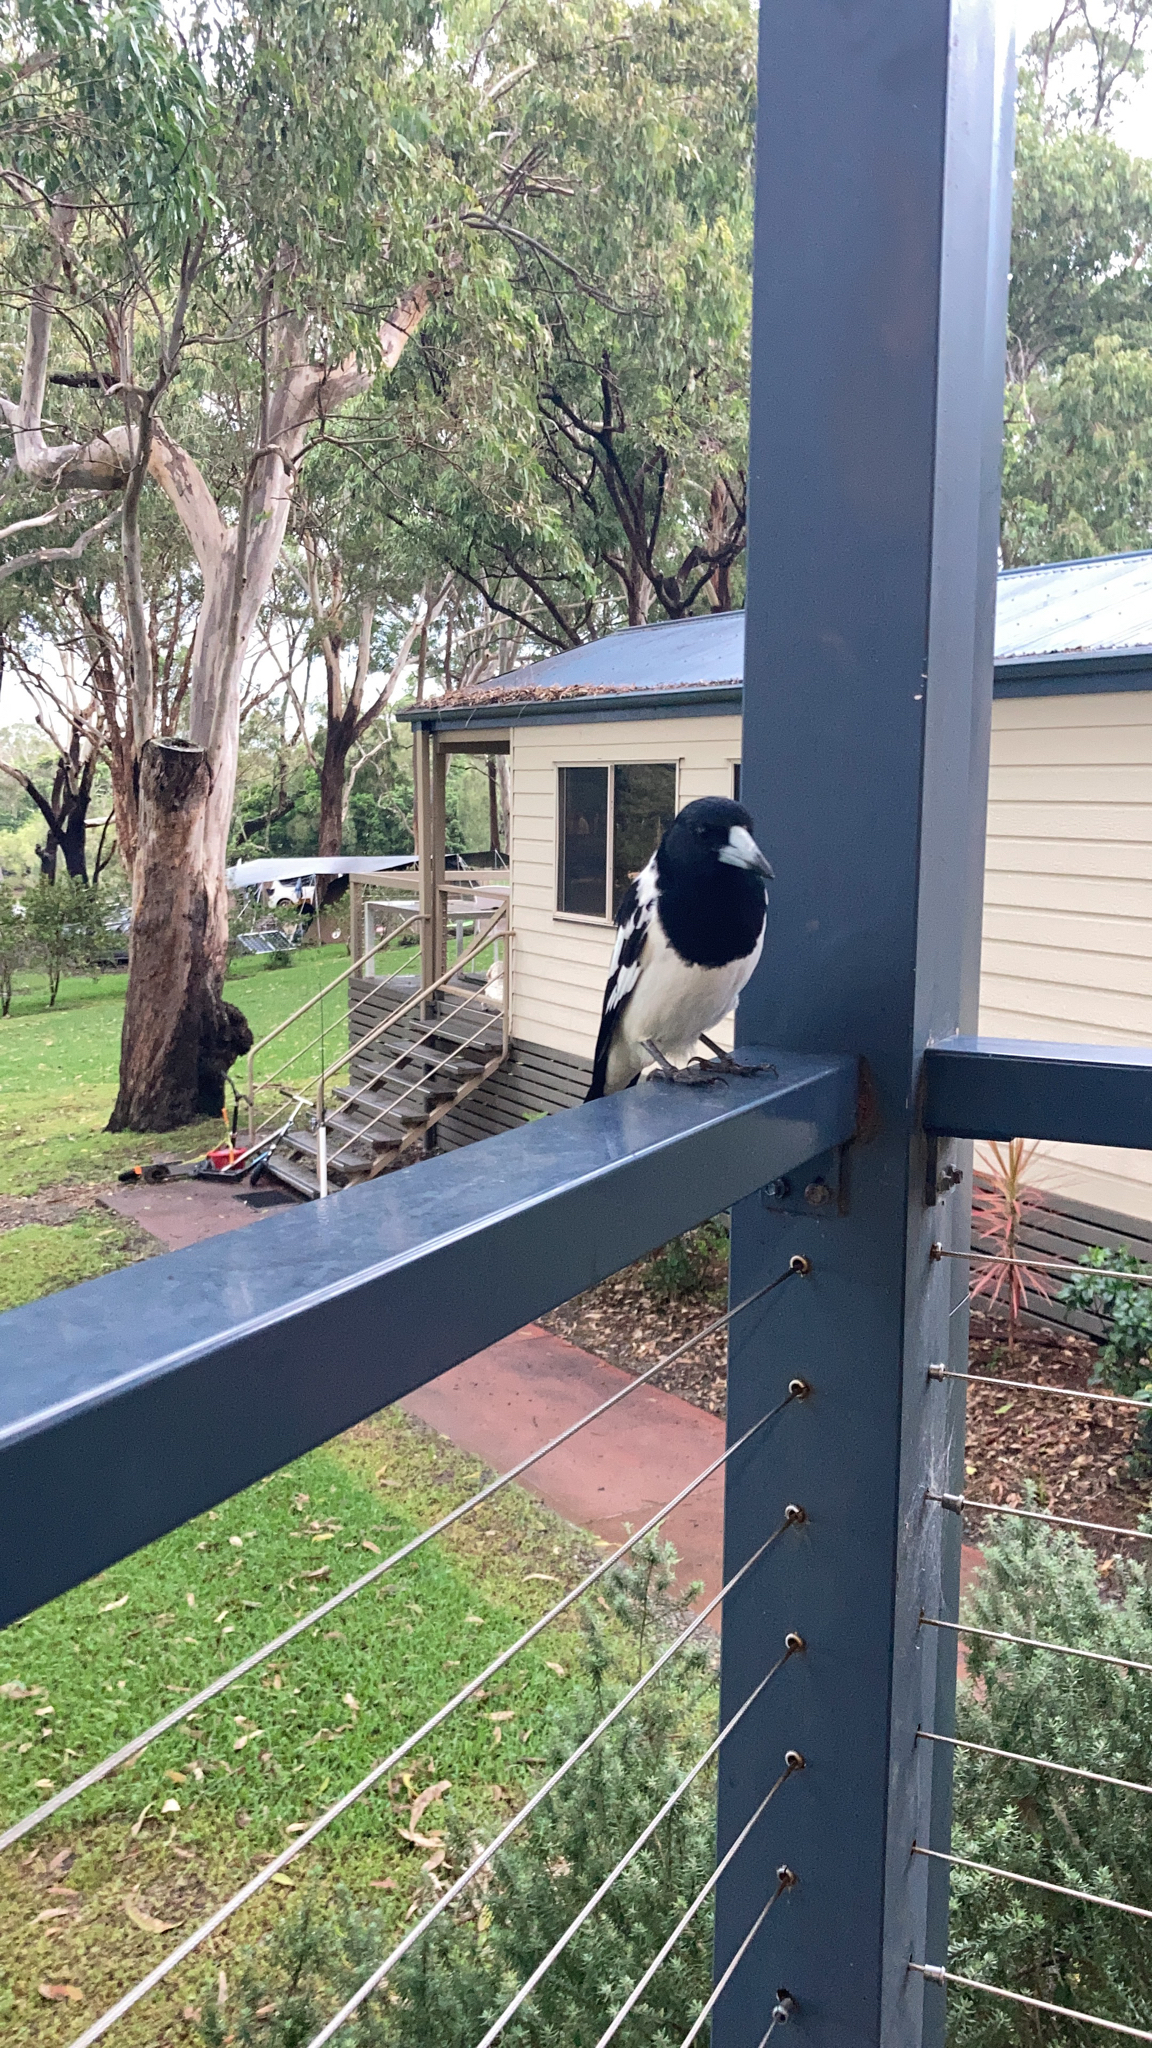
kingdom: Animalia
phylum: Chordata
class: Aves
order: Passeriformes
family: Cracticidae
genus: Cracticus
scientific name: Cracticus nigrogularis
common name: Pied butcherbird
